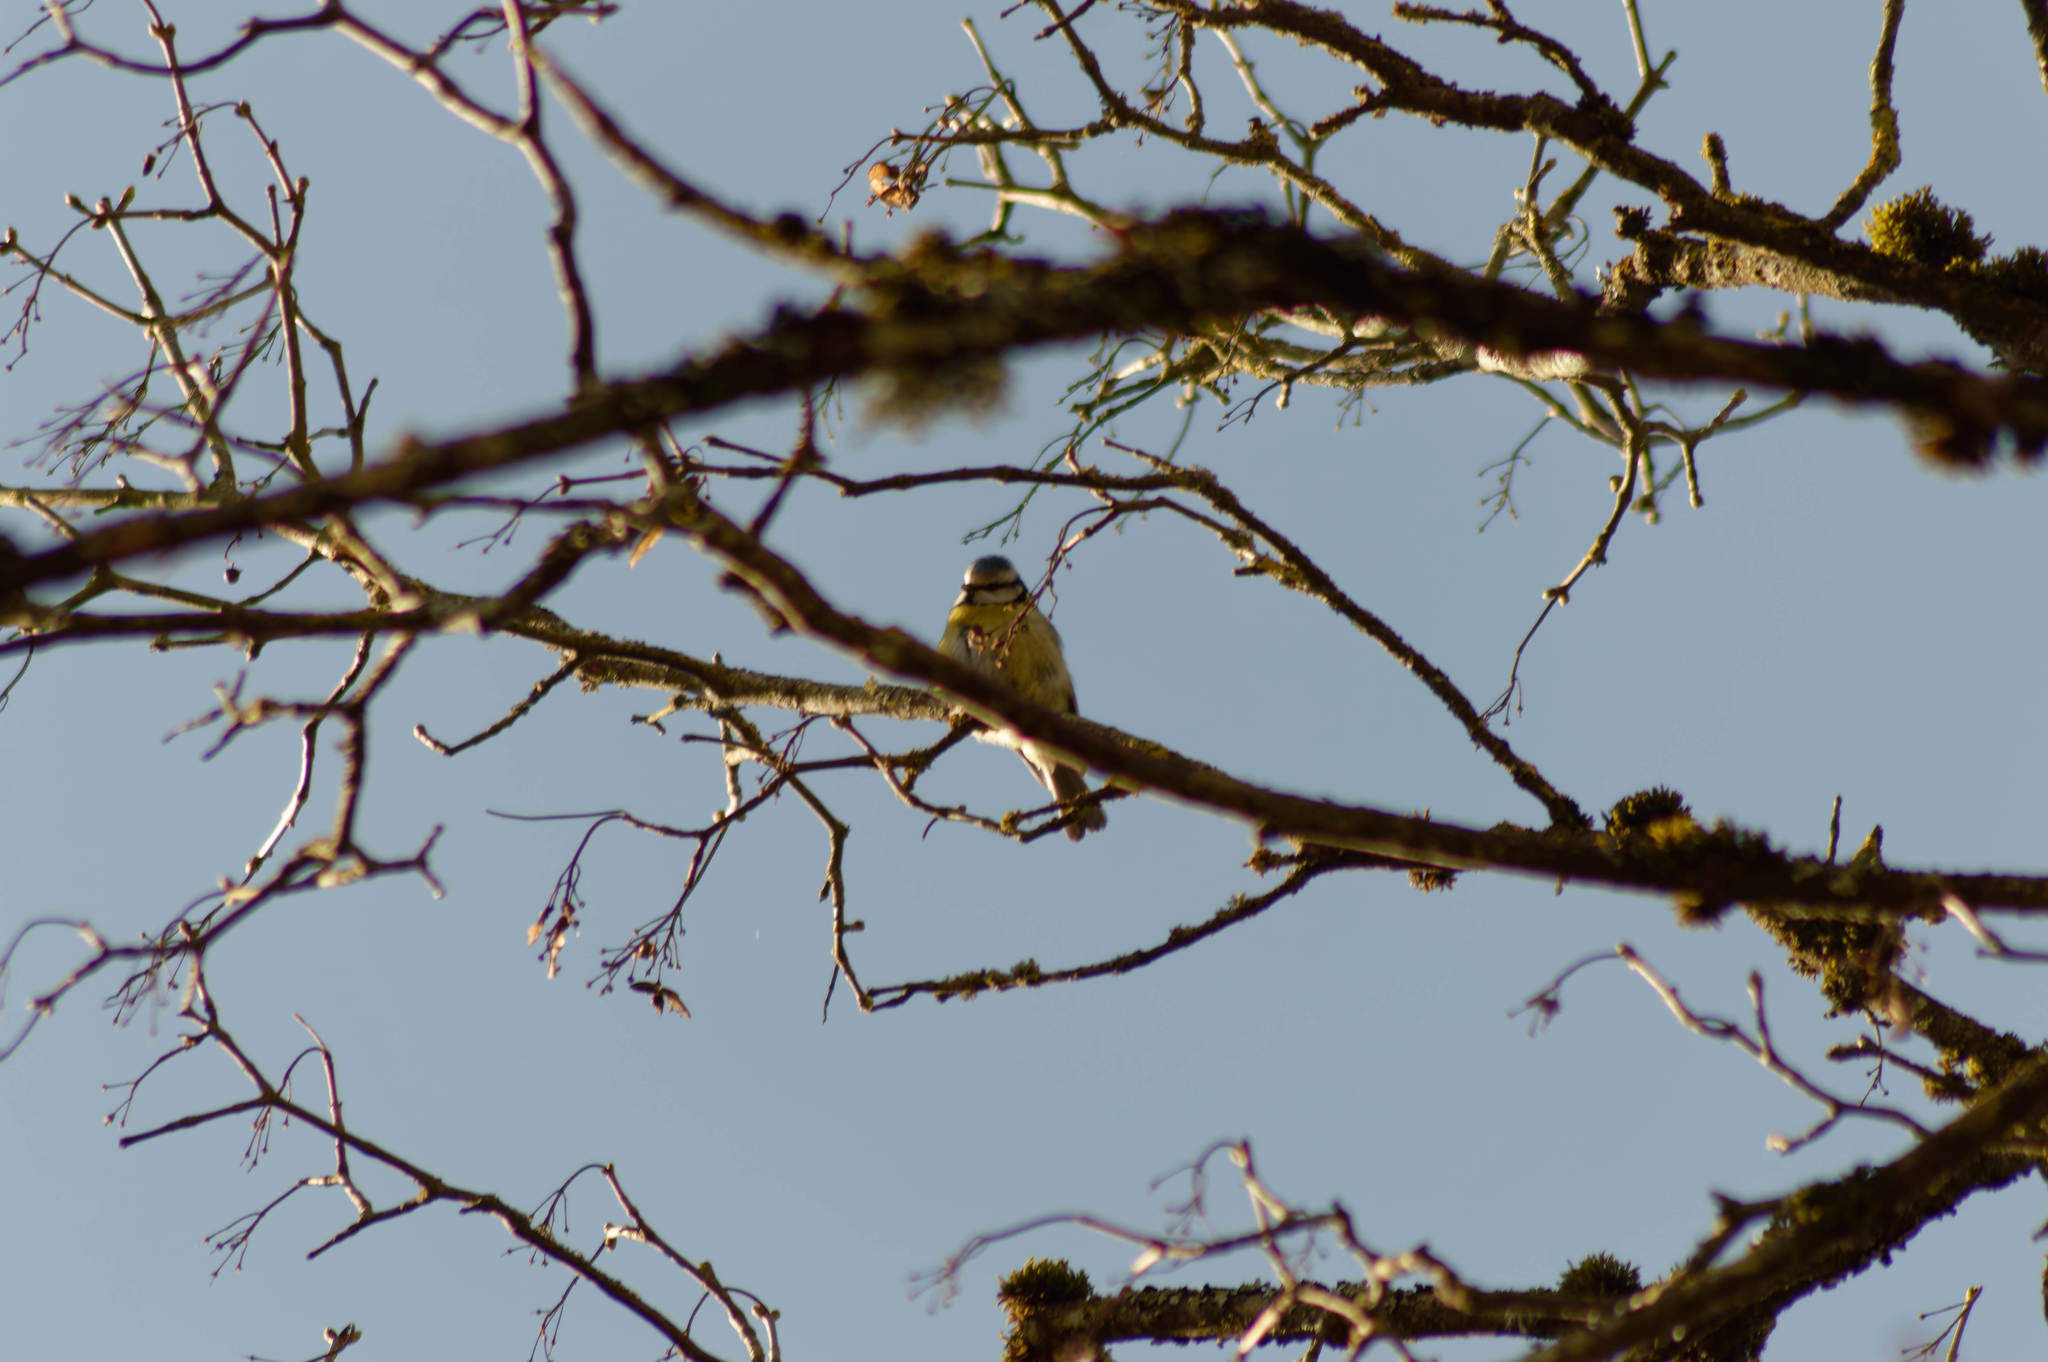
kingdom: Animalia
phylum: Chordata
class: Aves
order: Passeriformes
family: Paridae
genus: Cyanistes
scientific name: Cyanistes caeruleus
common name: Eurasian blue tit
